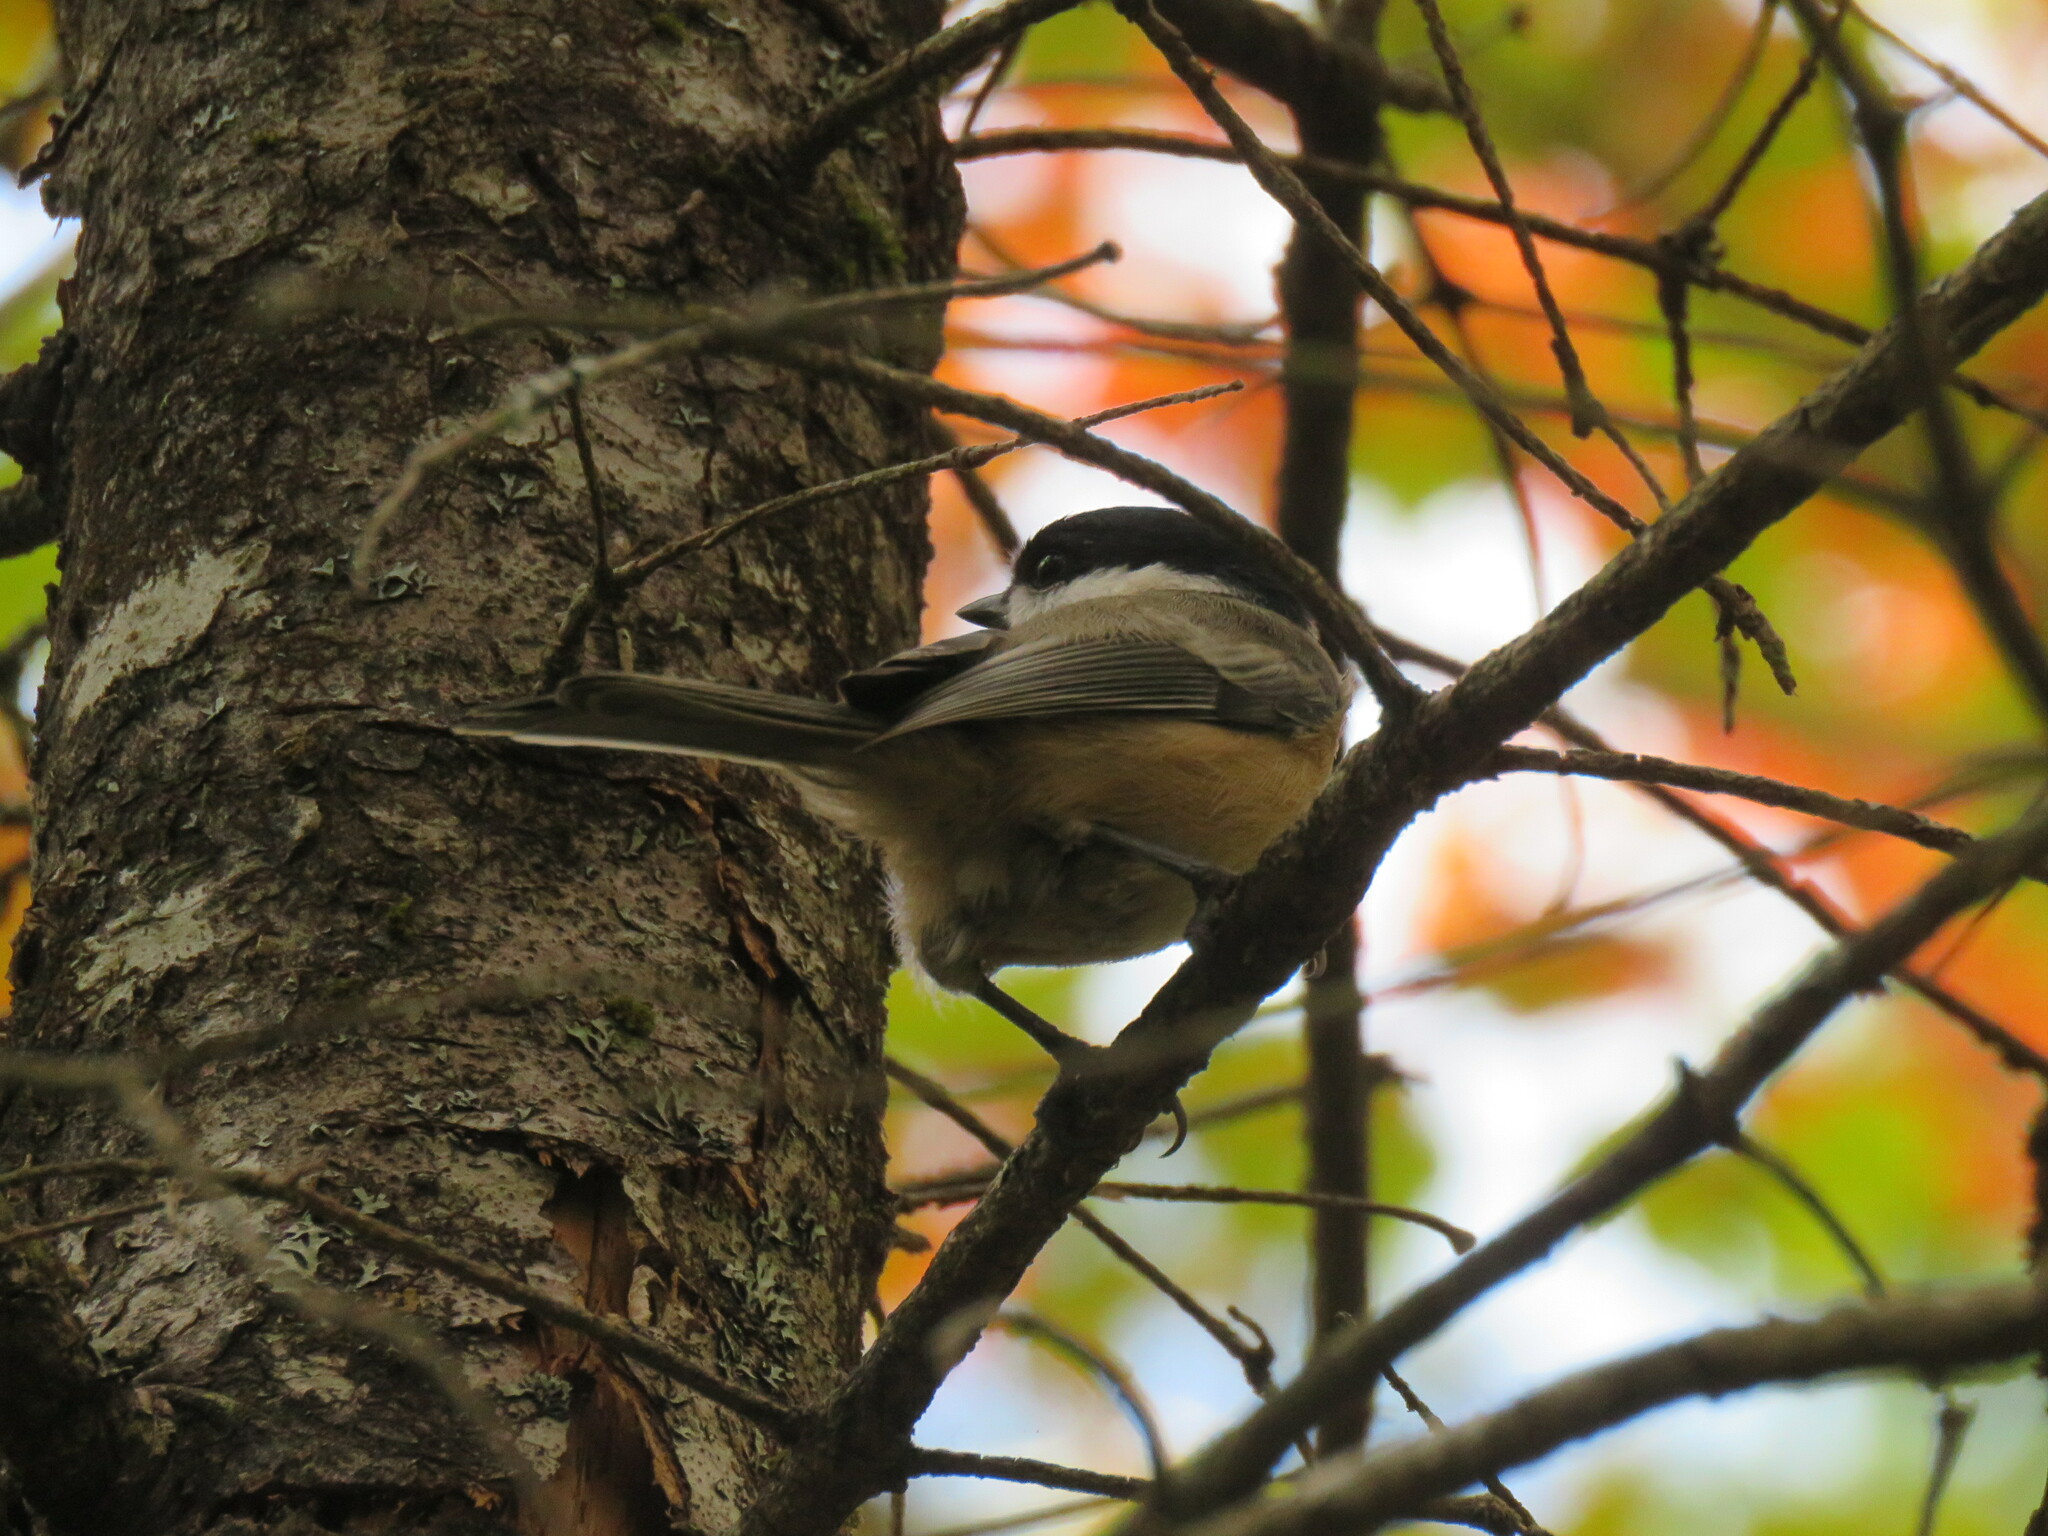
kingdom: Animalia
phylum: Chordata
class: Aves
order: Passeriformes
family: Paridae
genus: Poecile
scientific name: Poecile atricapillus
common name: Black-capped chickadee
